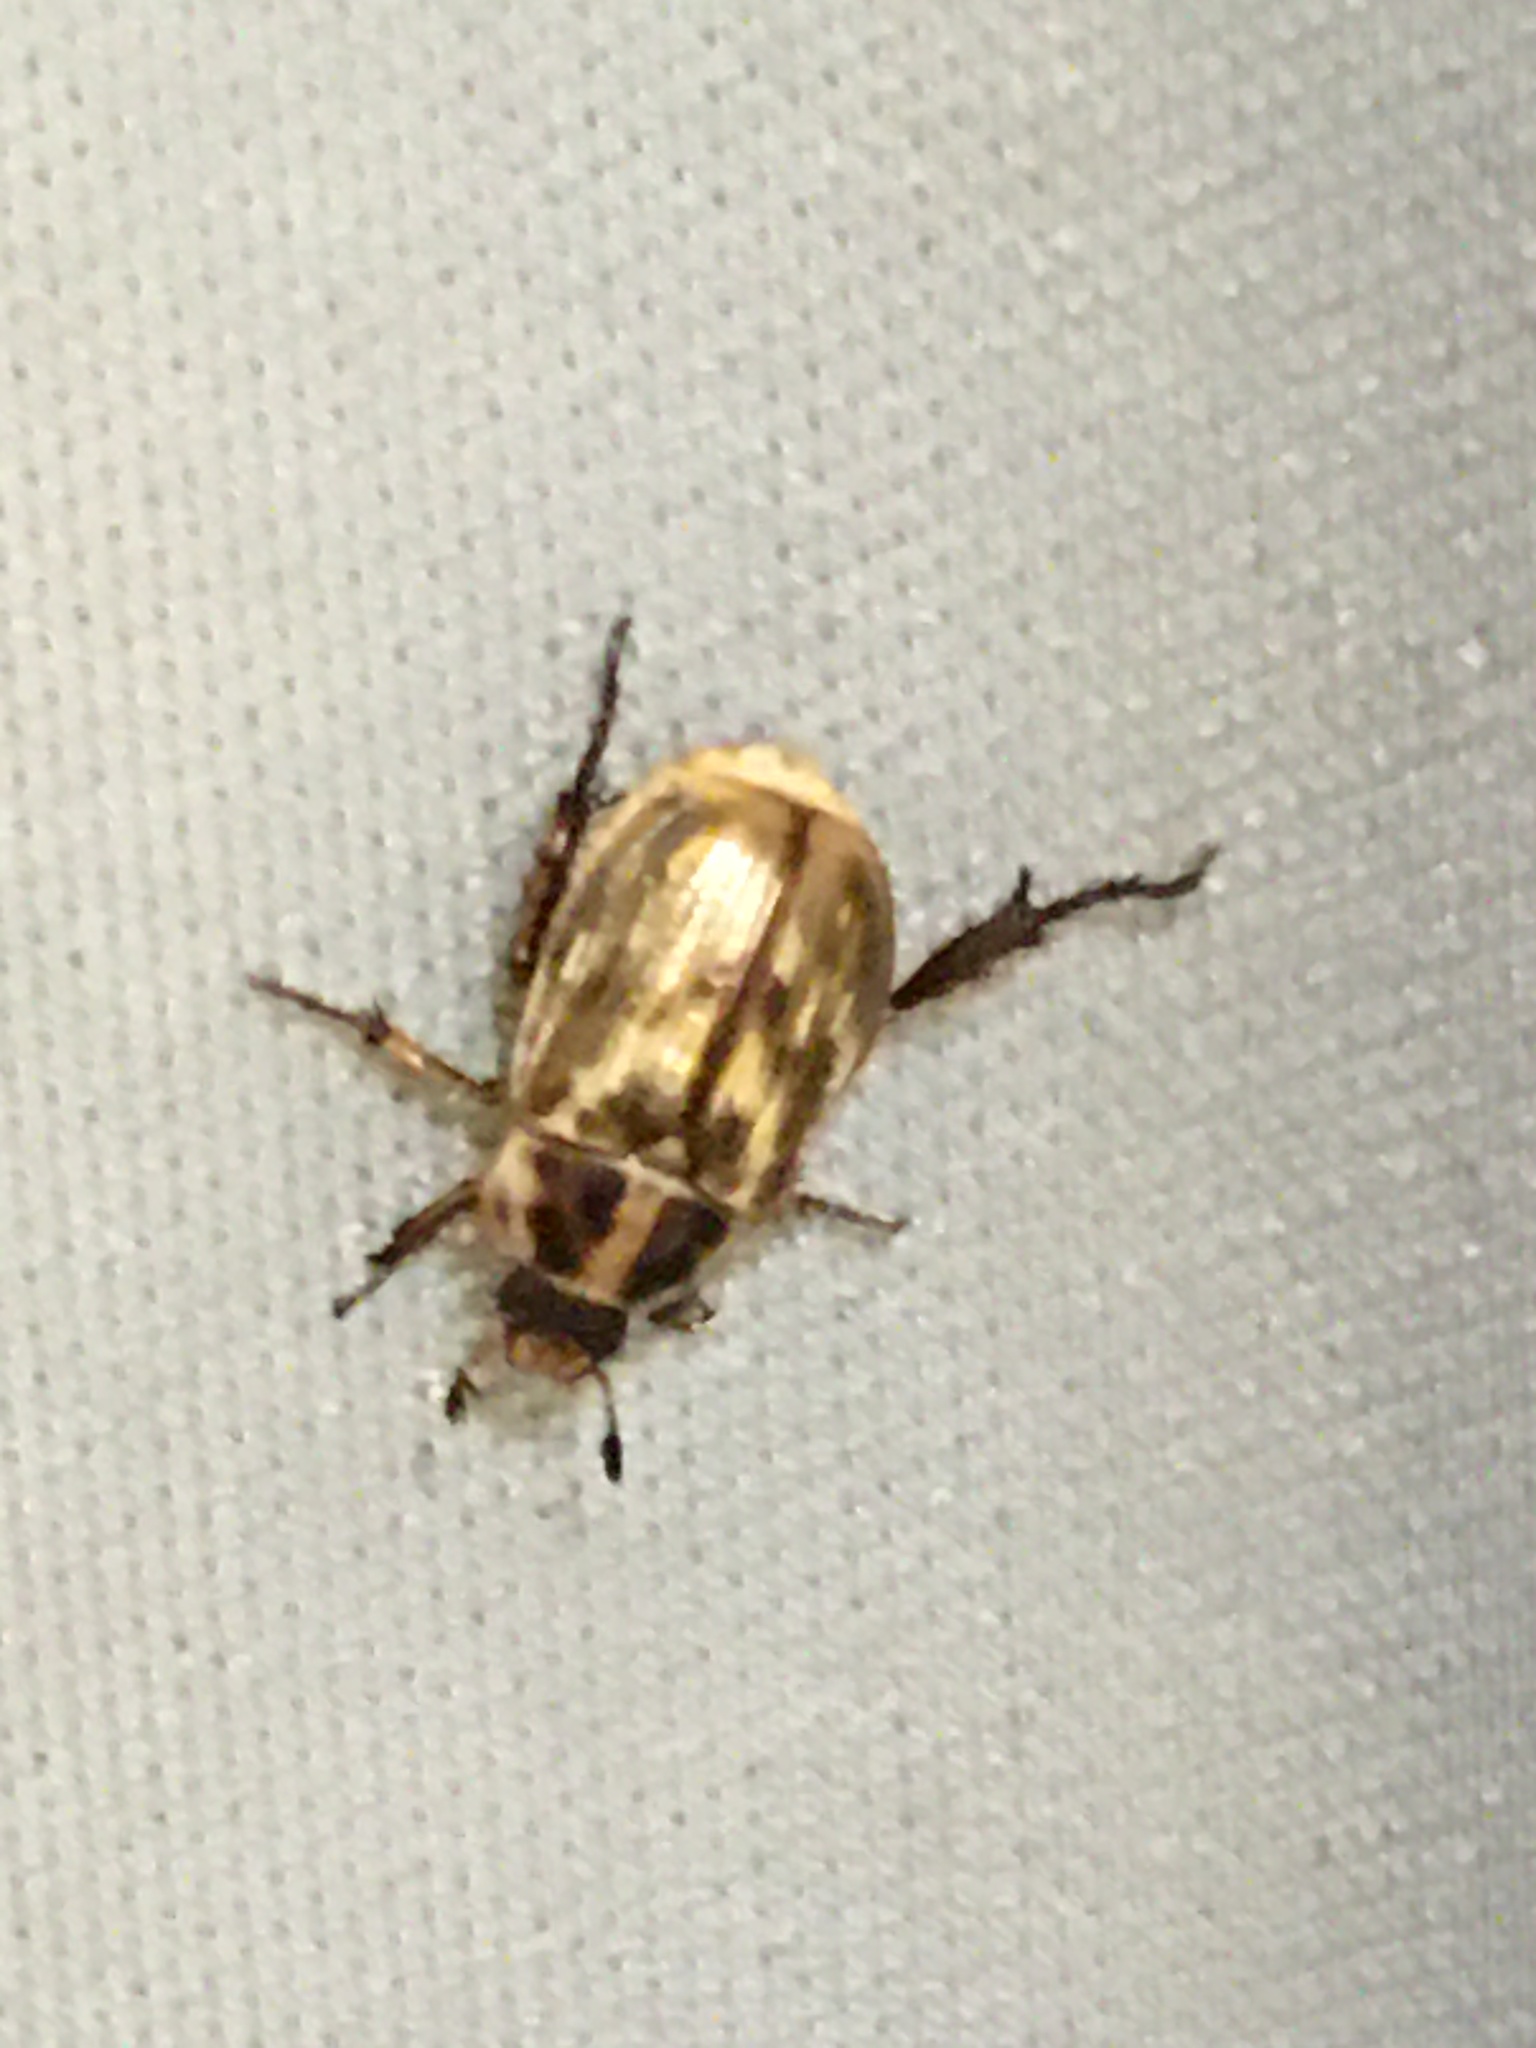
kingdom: Animalia
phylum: Arthropoda
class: Insecta
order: Coleoptera
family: Scarabaeidae
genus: Exomala
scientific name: Exomala orientalis
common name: Oriental beetle
